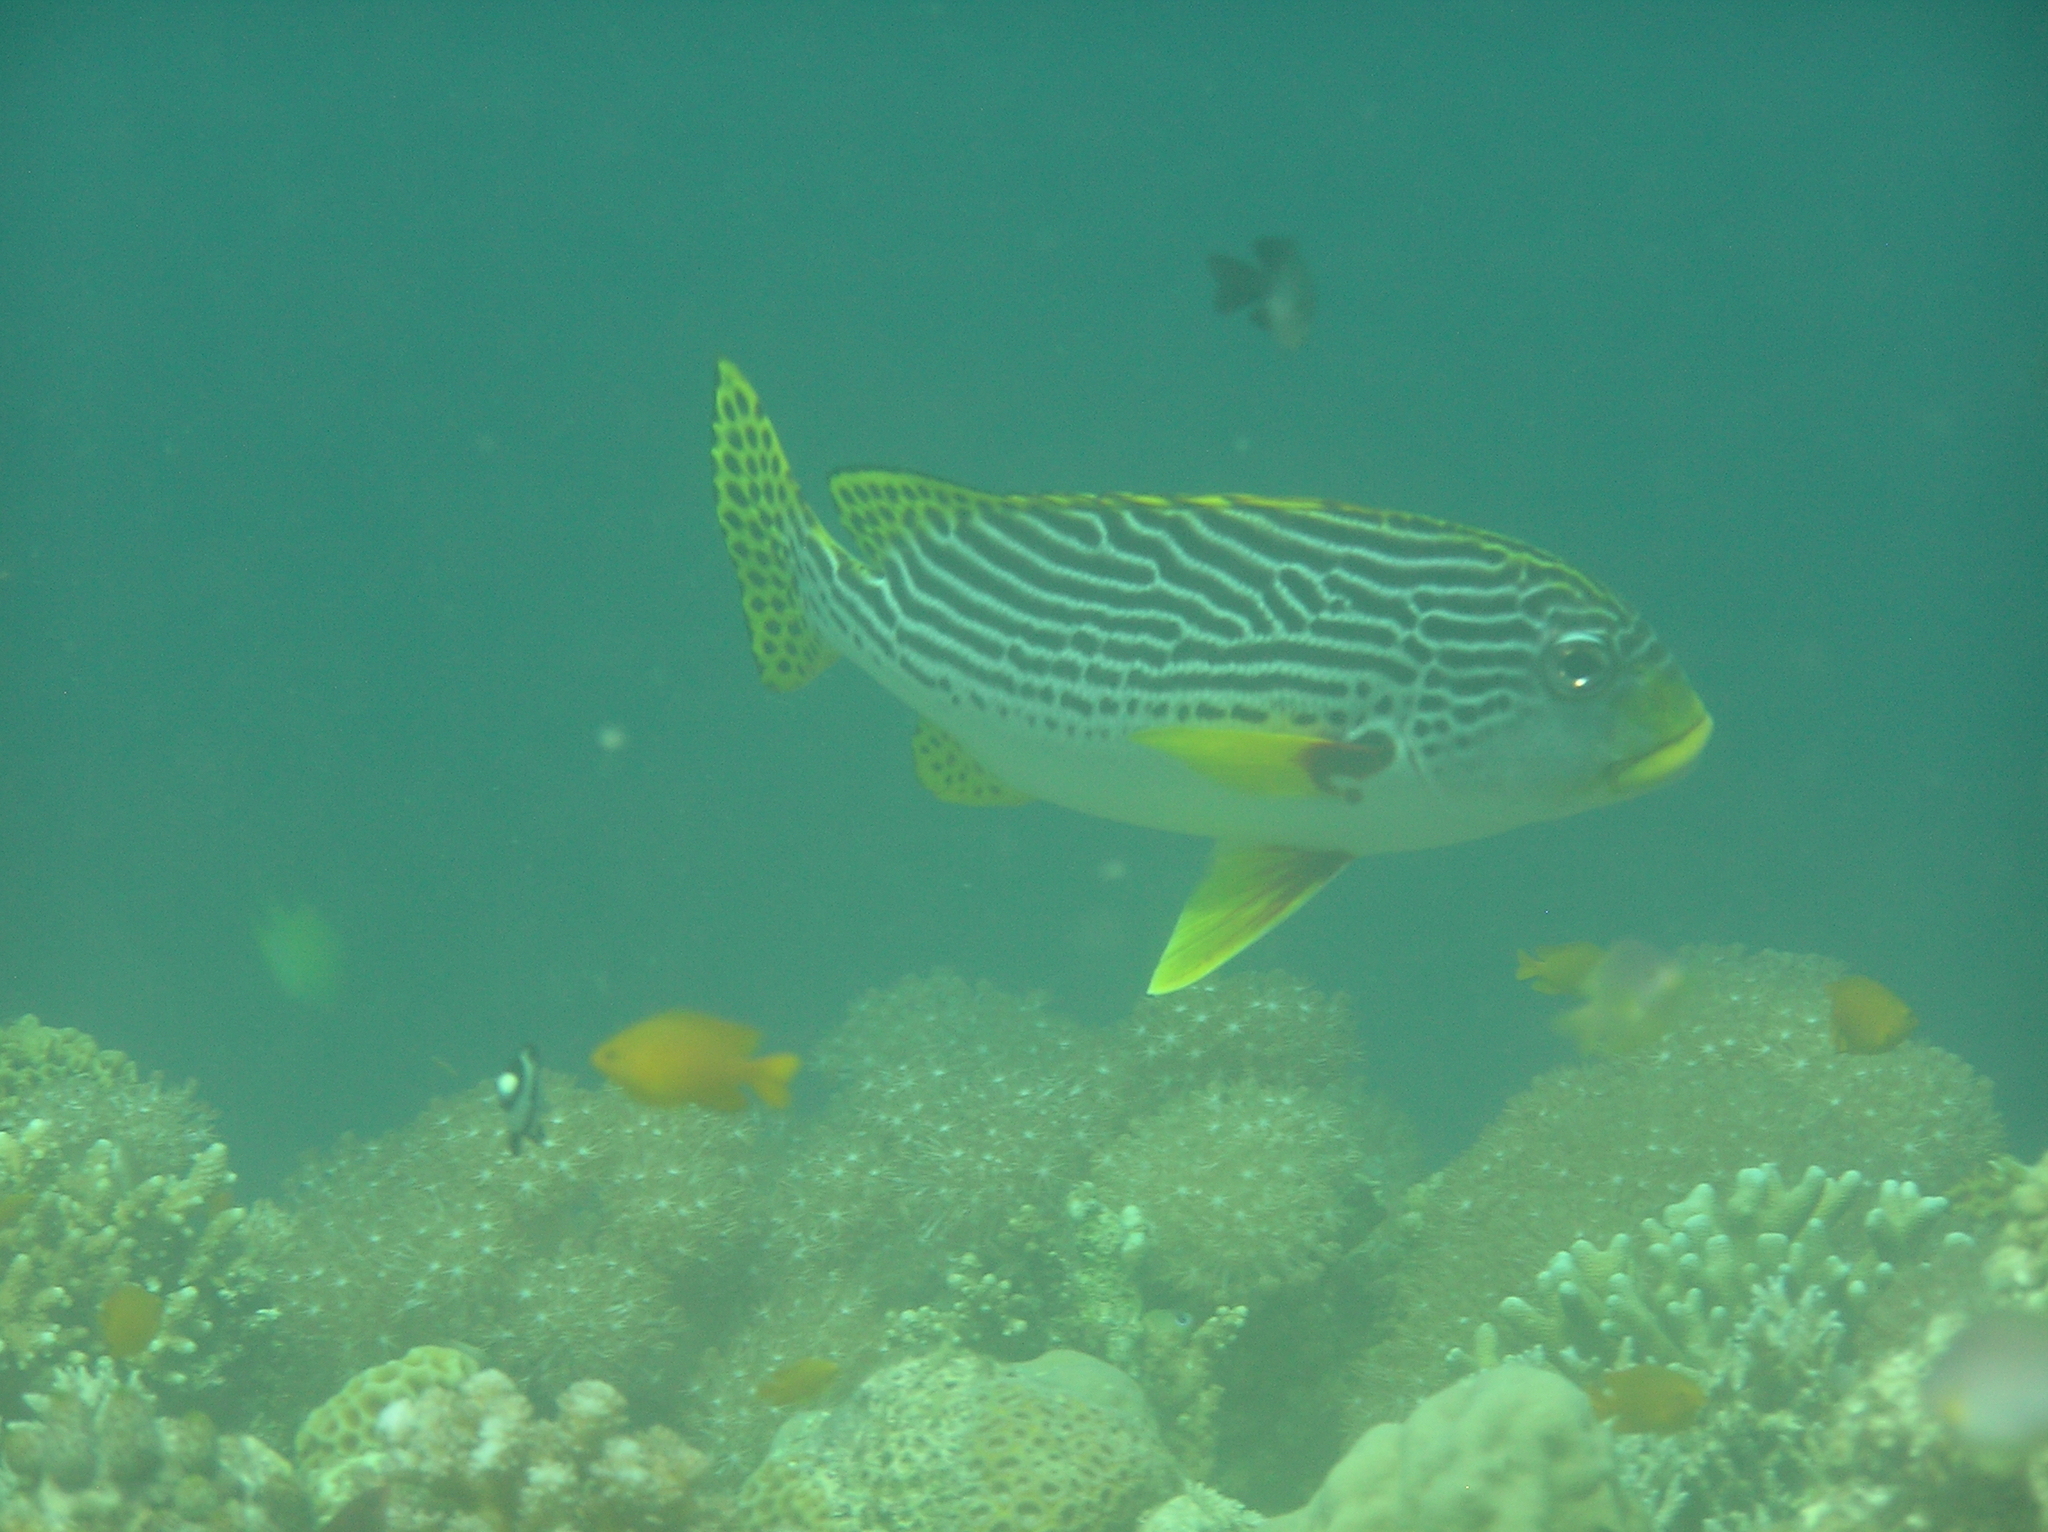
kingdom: Animalia
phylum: Chordata
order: Perciformes
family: Haemulidae
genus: Plectorhinchus
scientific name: Plectorhinchus lineatus
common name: Goldman's sweetlips
